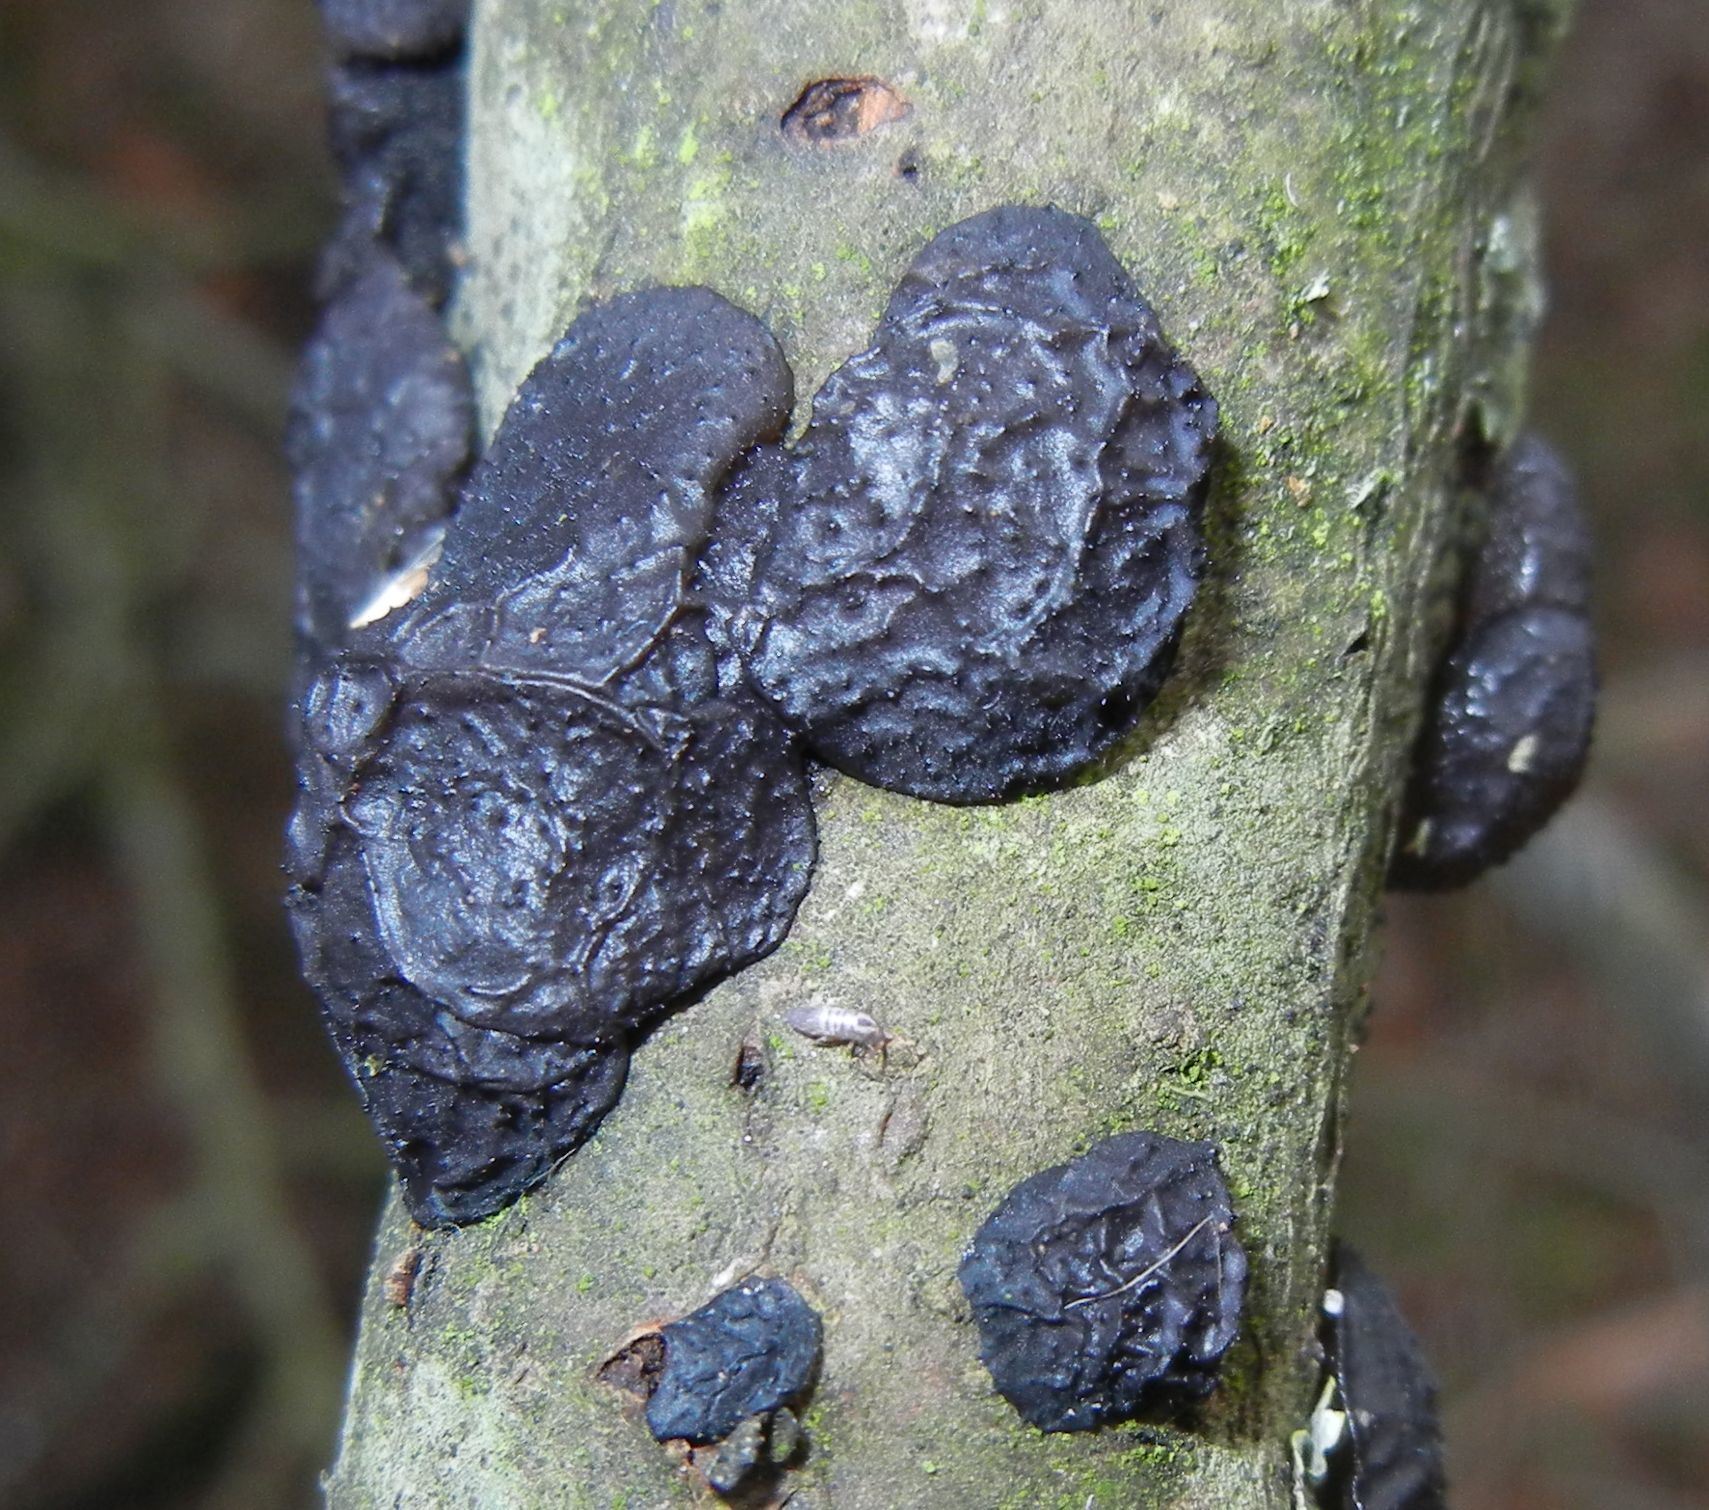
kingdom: Fungi
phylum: Basidiomycota
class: Agaricomycetes
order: Auriculariales
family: Auriculariaceae
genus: Exidia
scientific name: Exidia glandulosa
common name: Witches' butter
